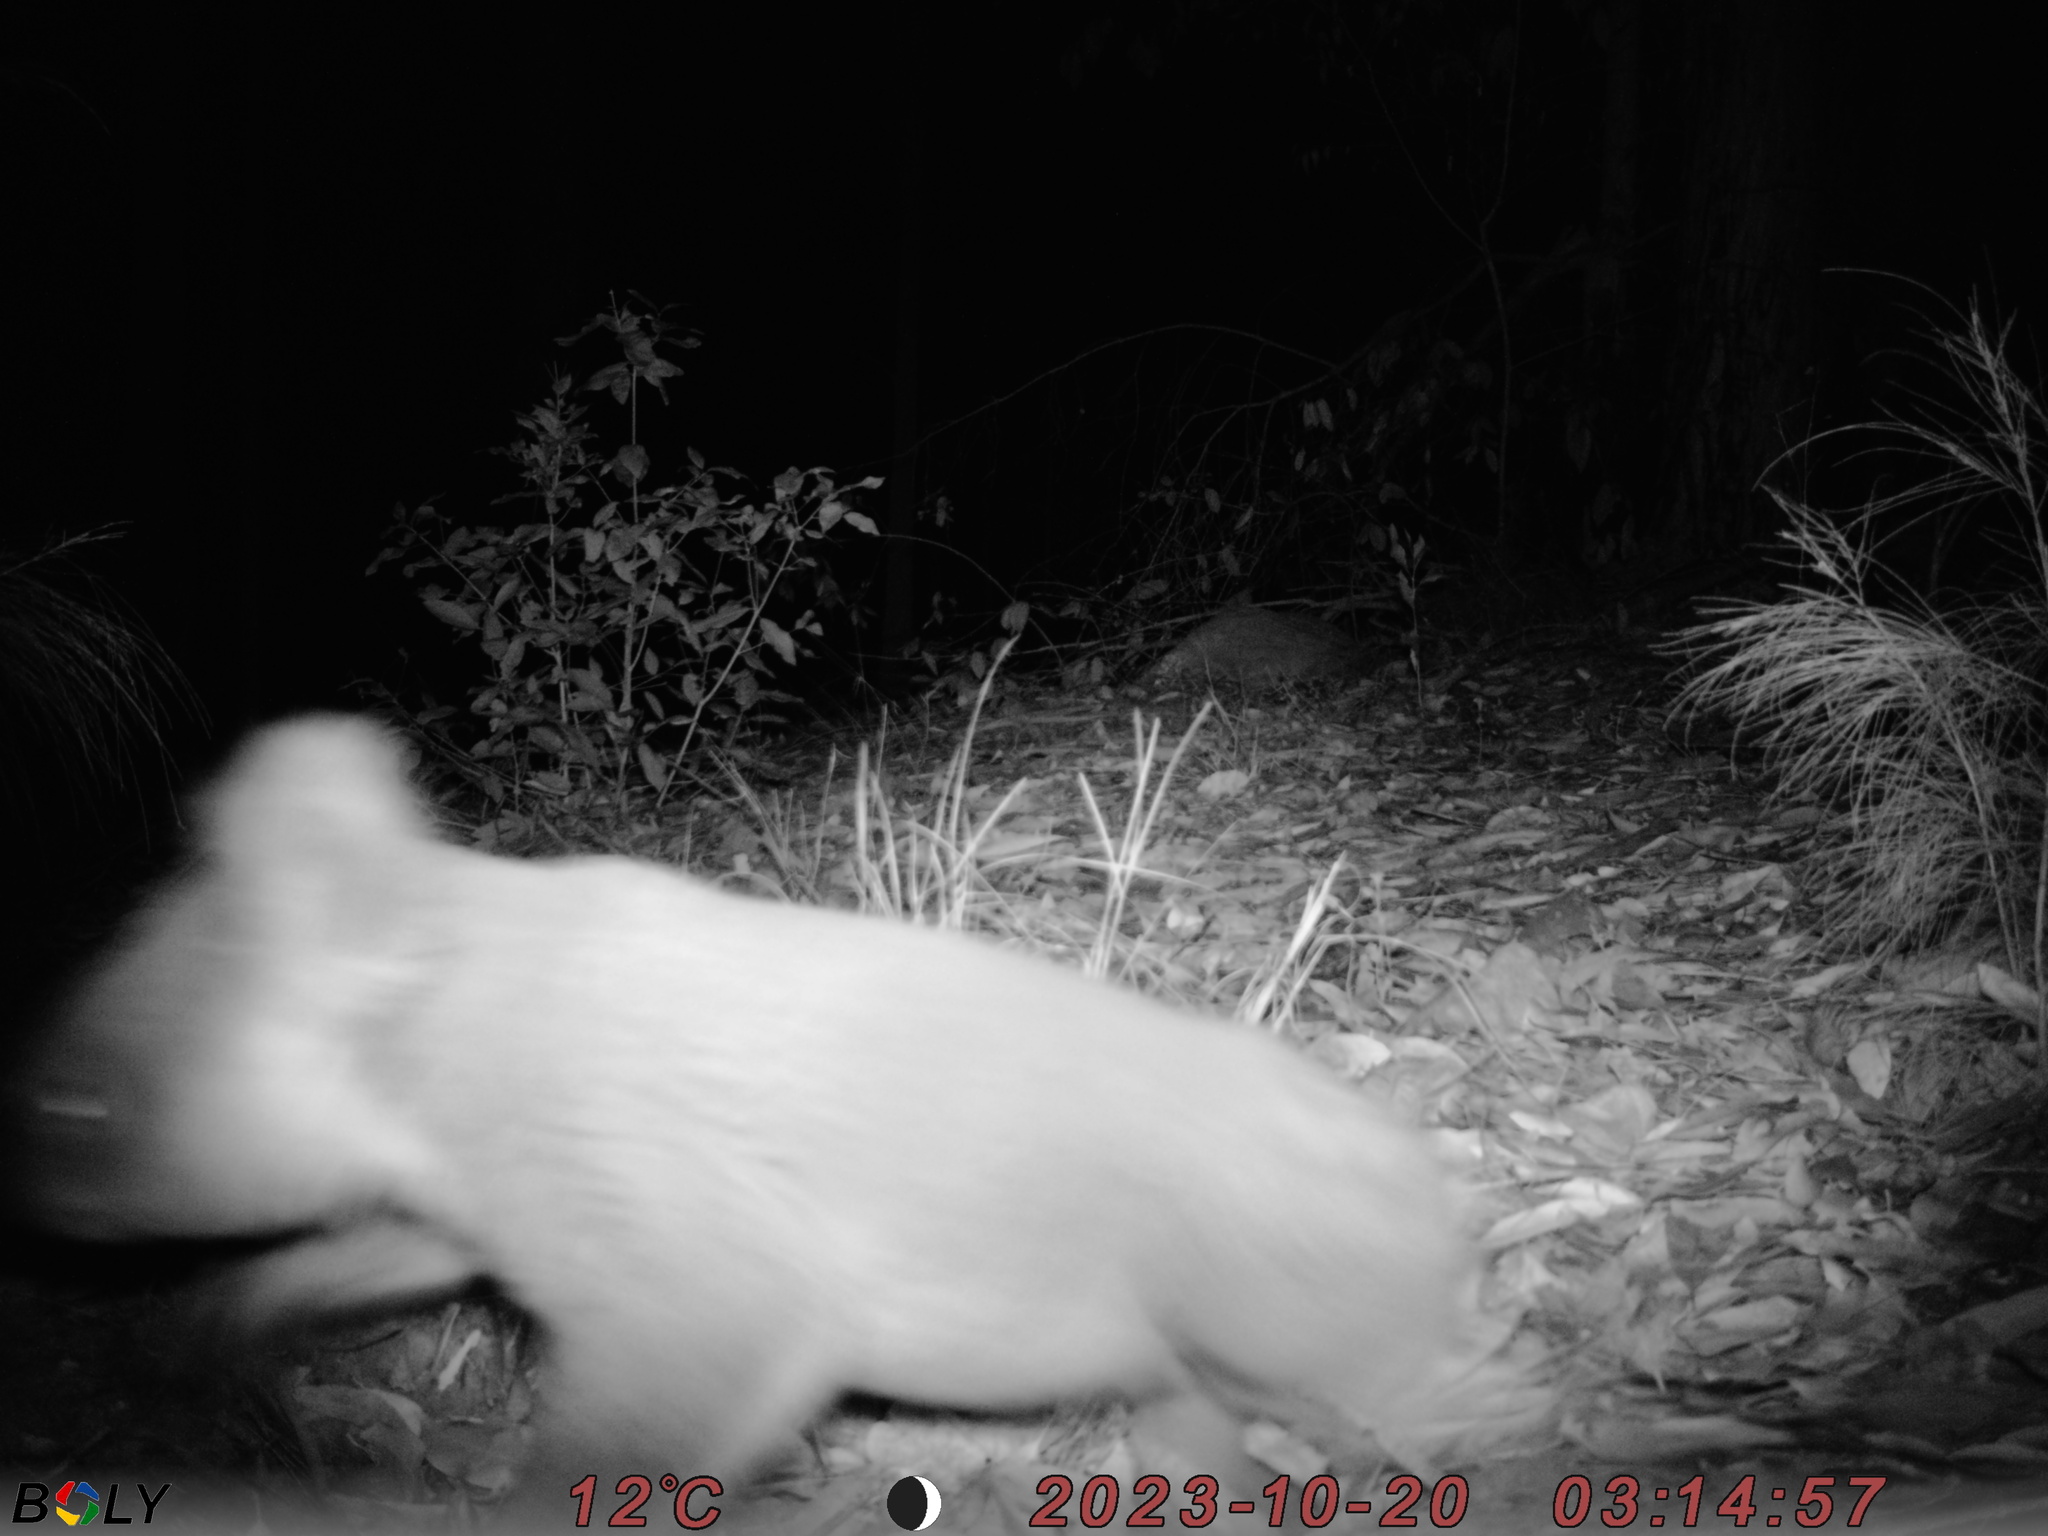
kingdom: Animalia
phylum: Chordata
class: Mammalia
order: Diprotodontia
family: Phascolarctidae
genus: Phascolarctos
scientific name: Phascolarctos cinereus
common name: Koala
